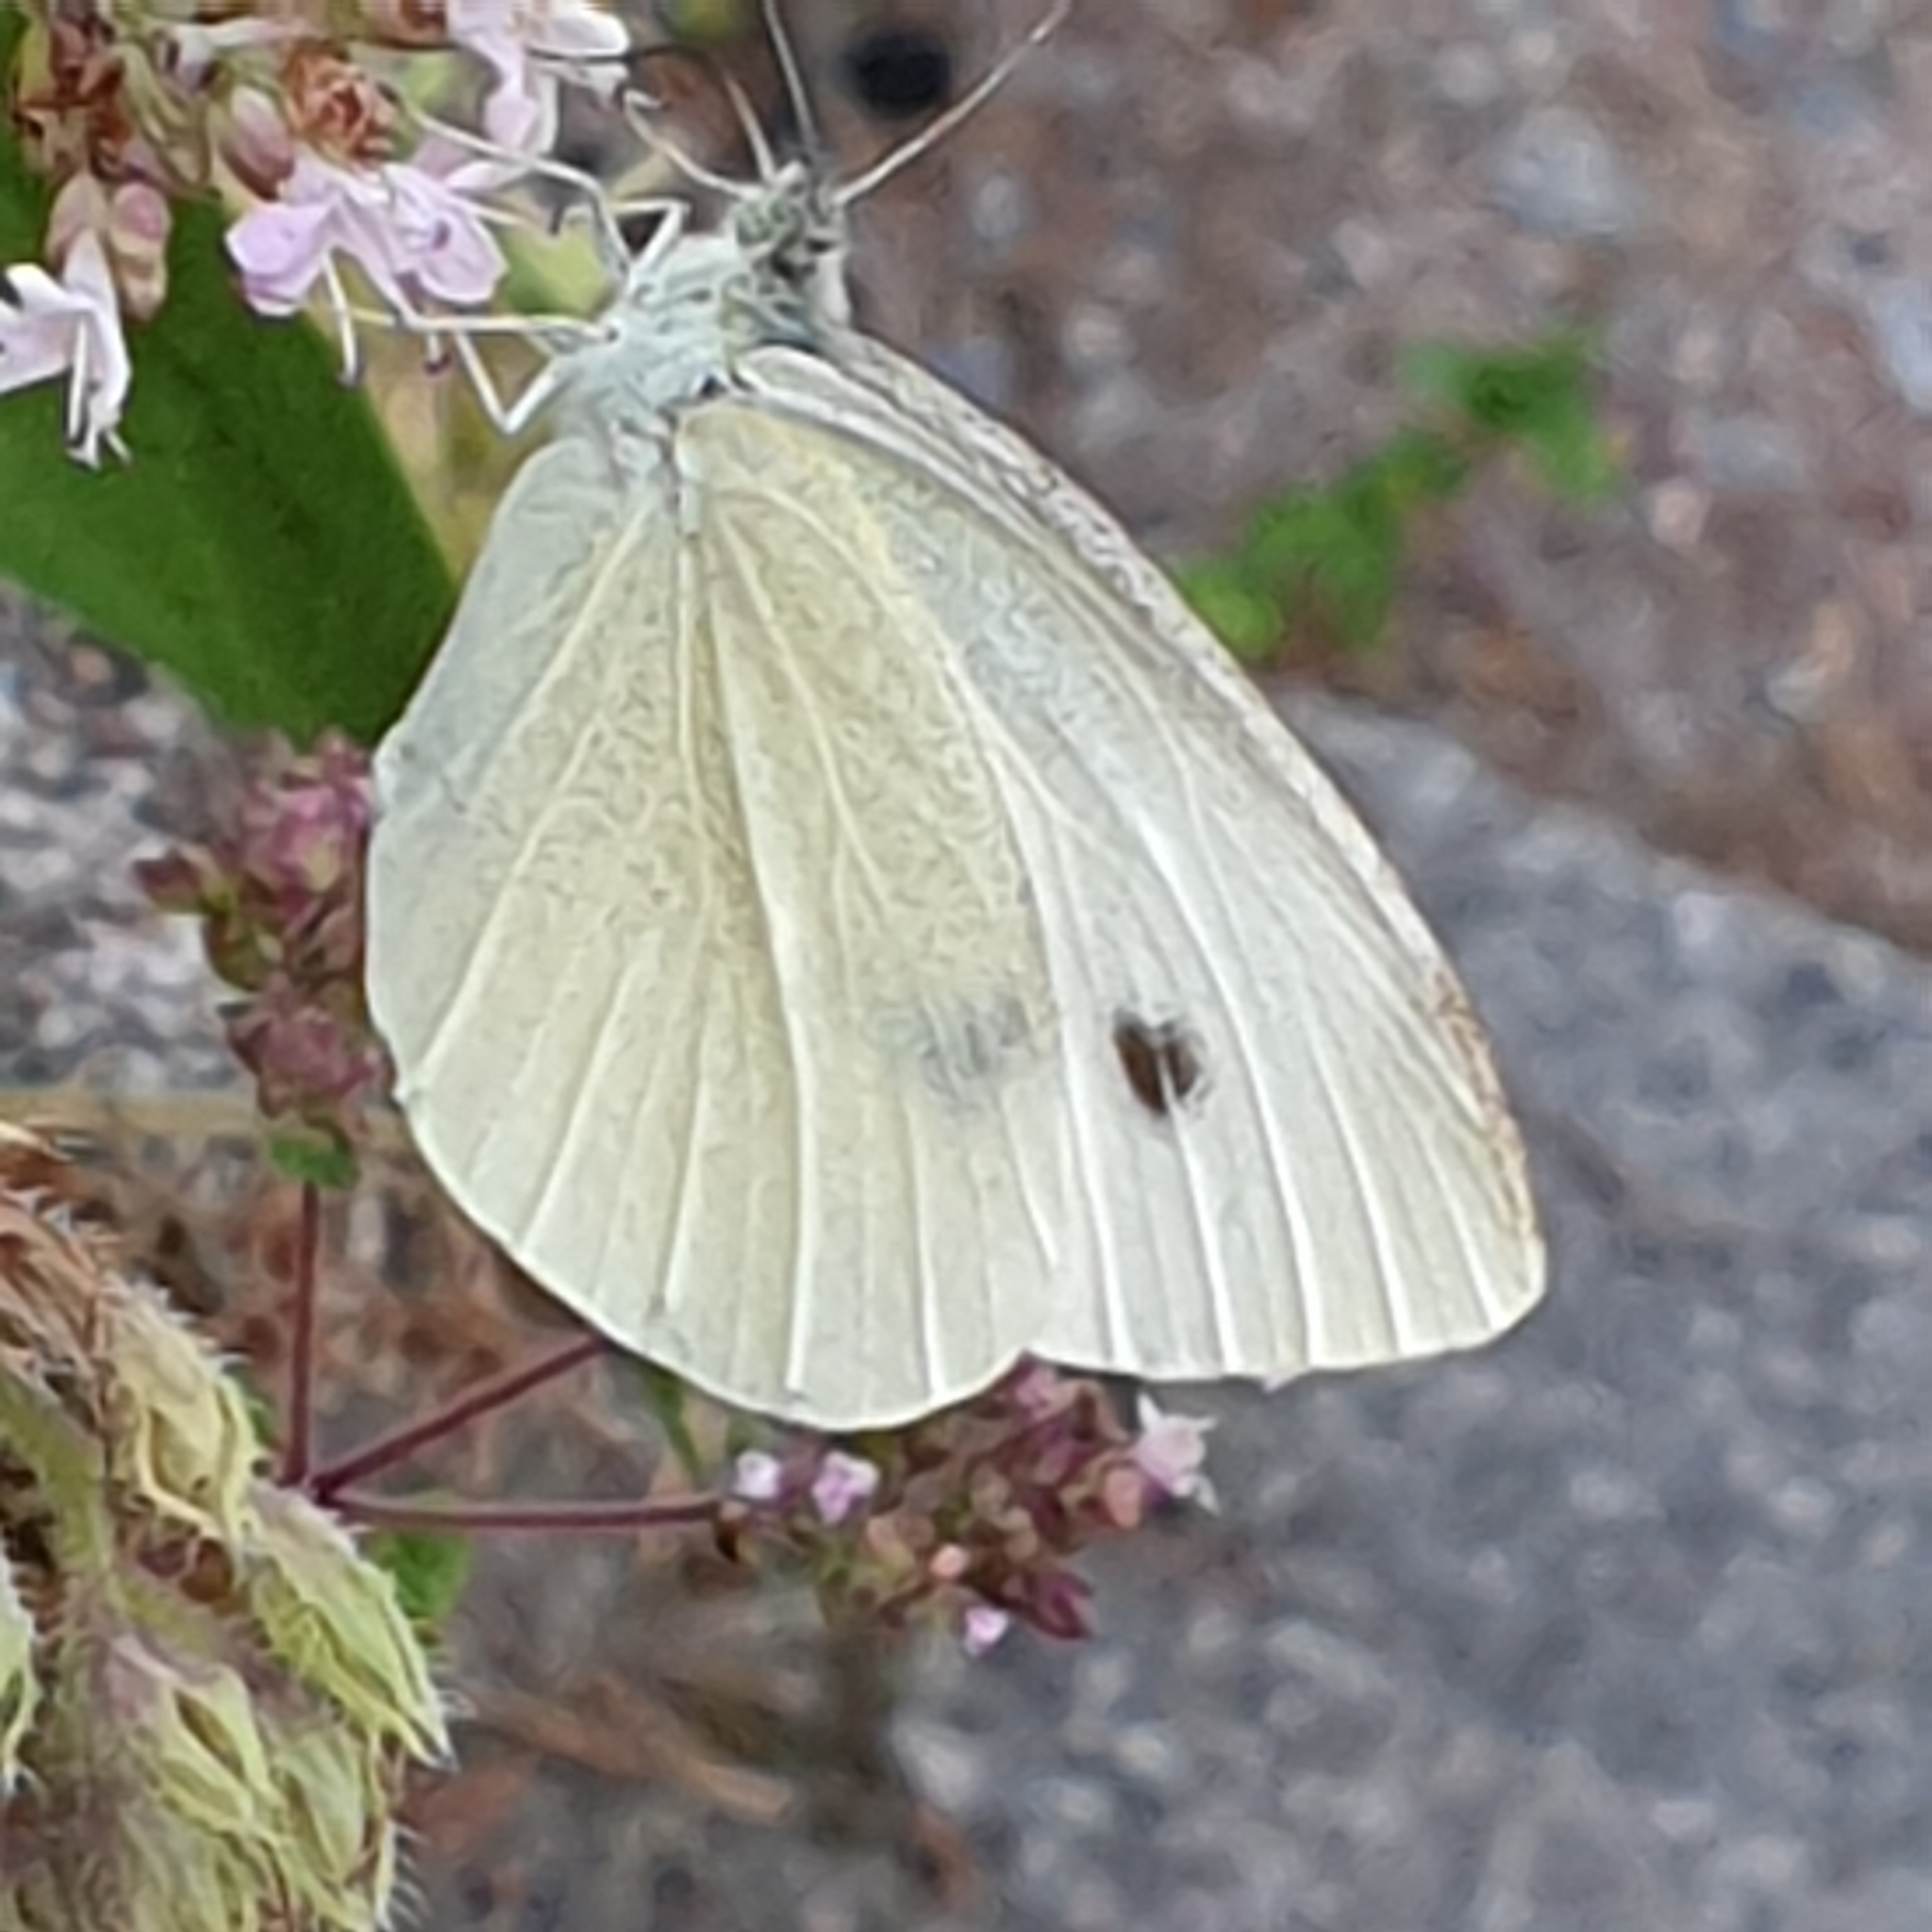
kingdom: Animalia
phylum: Arthropoda
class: Insecta
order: Lepidoptera
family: Pieridae
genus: Pieris
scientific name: Pieris rapae
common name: Small white
